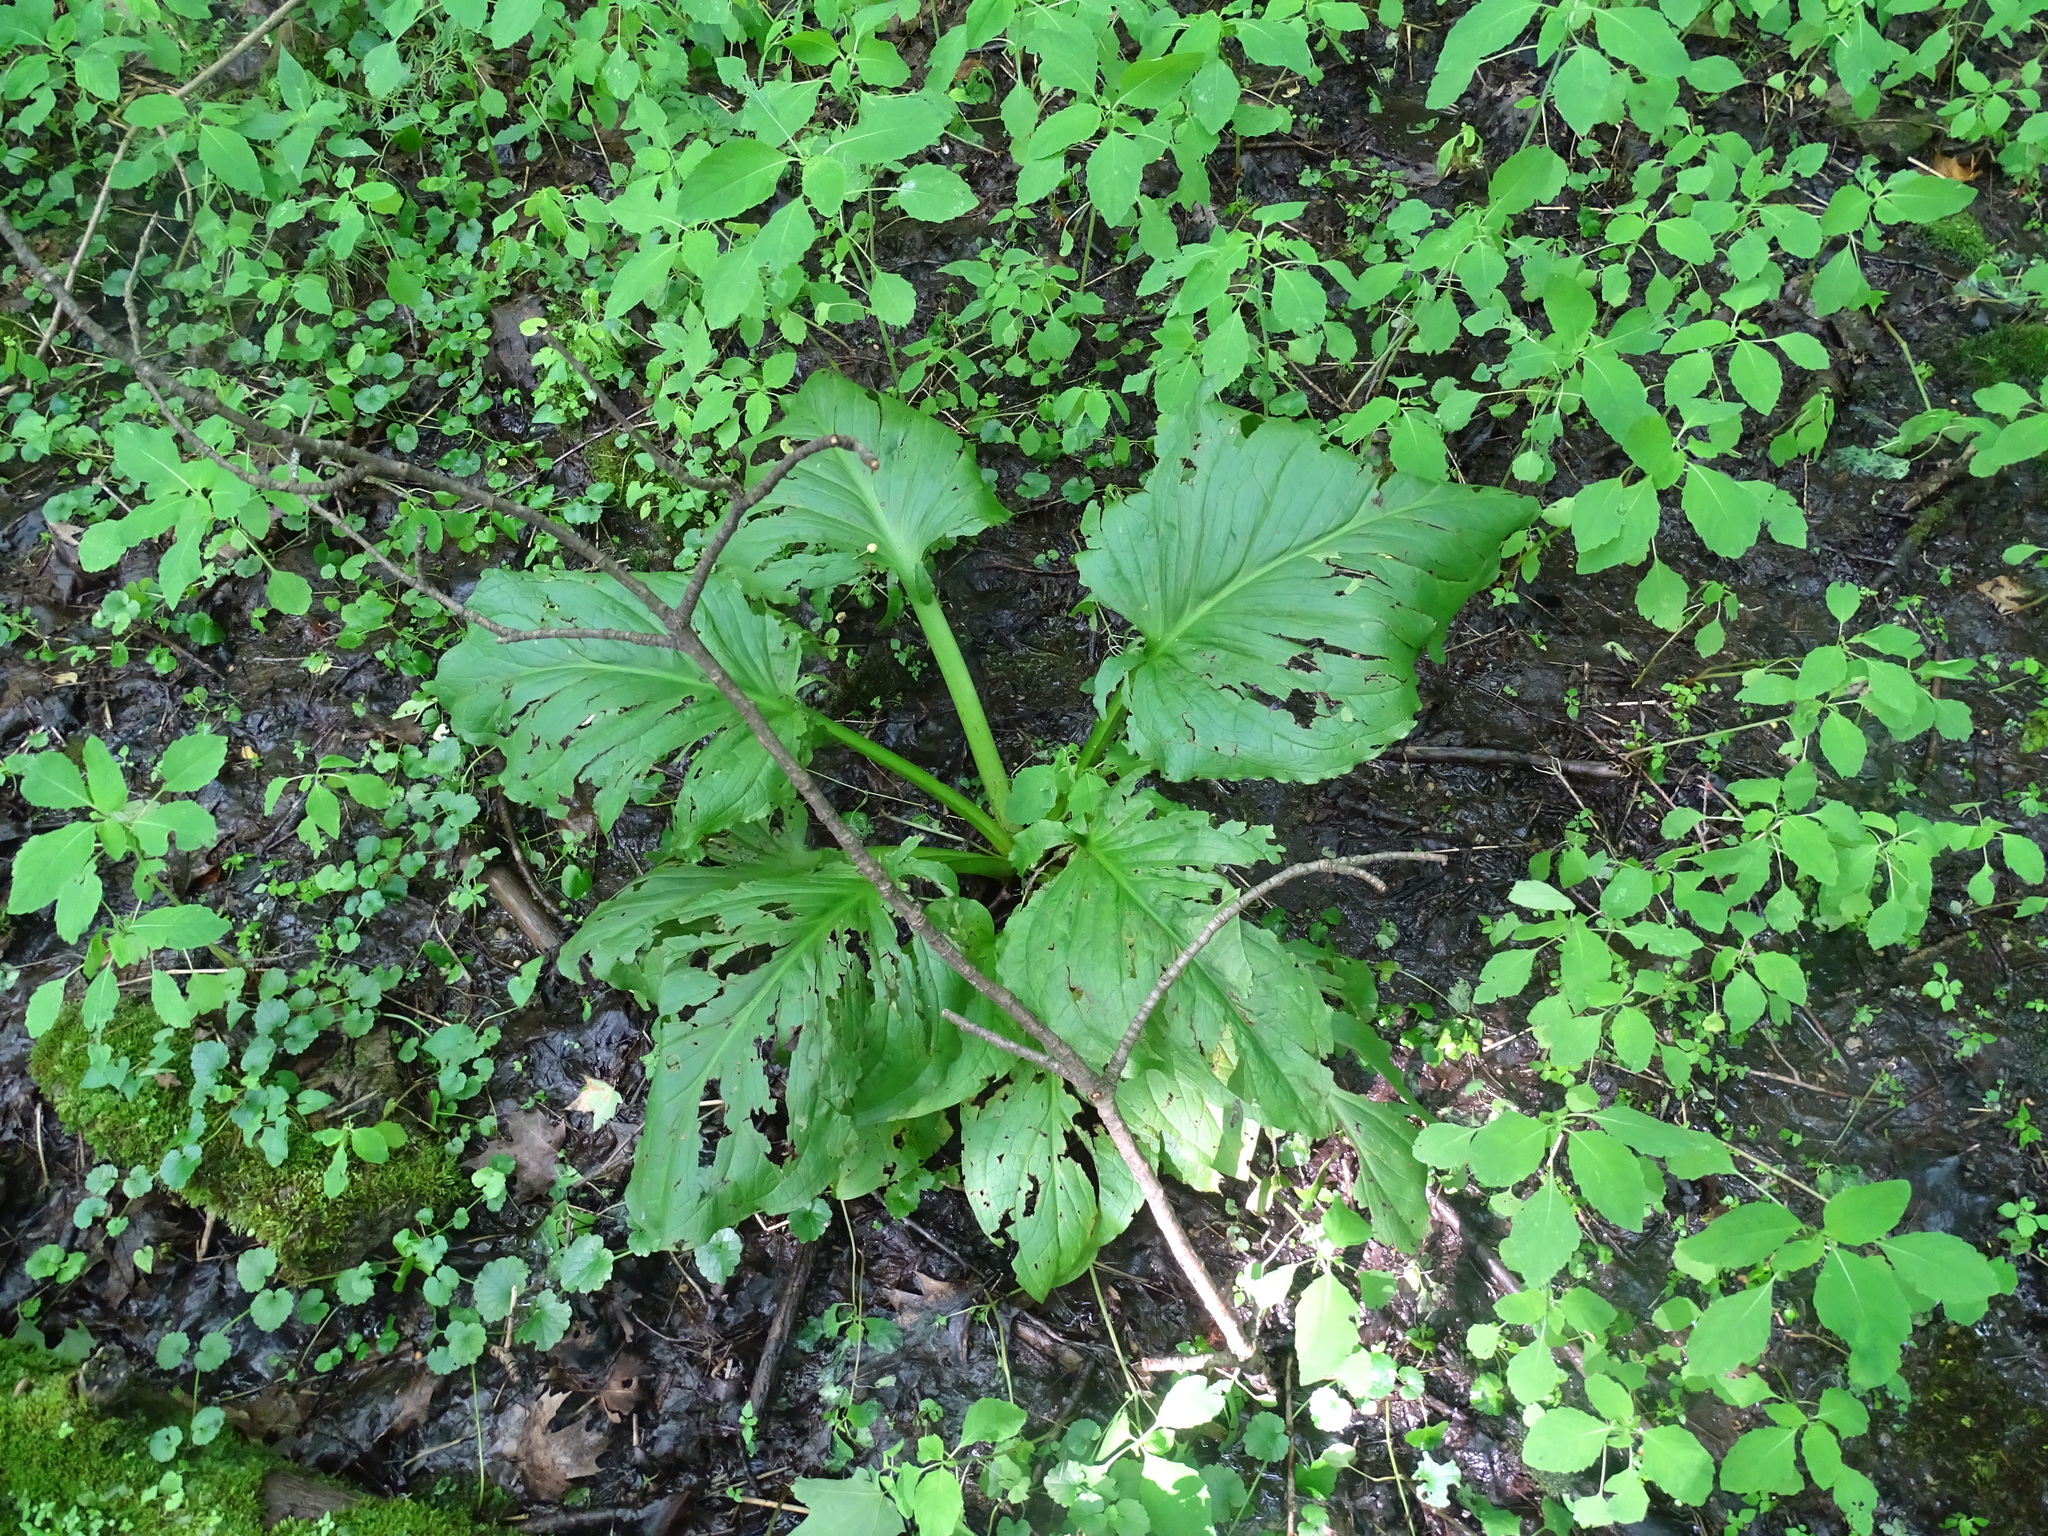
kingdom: Plantae
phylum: Tracheophyta
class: Liliopsida
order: Alismatales
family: Araceae
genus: Symplocarpus
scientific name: Symplocarpus foetidus
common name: Eastern skunk cabbage
